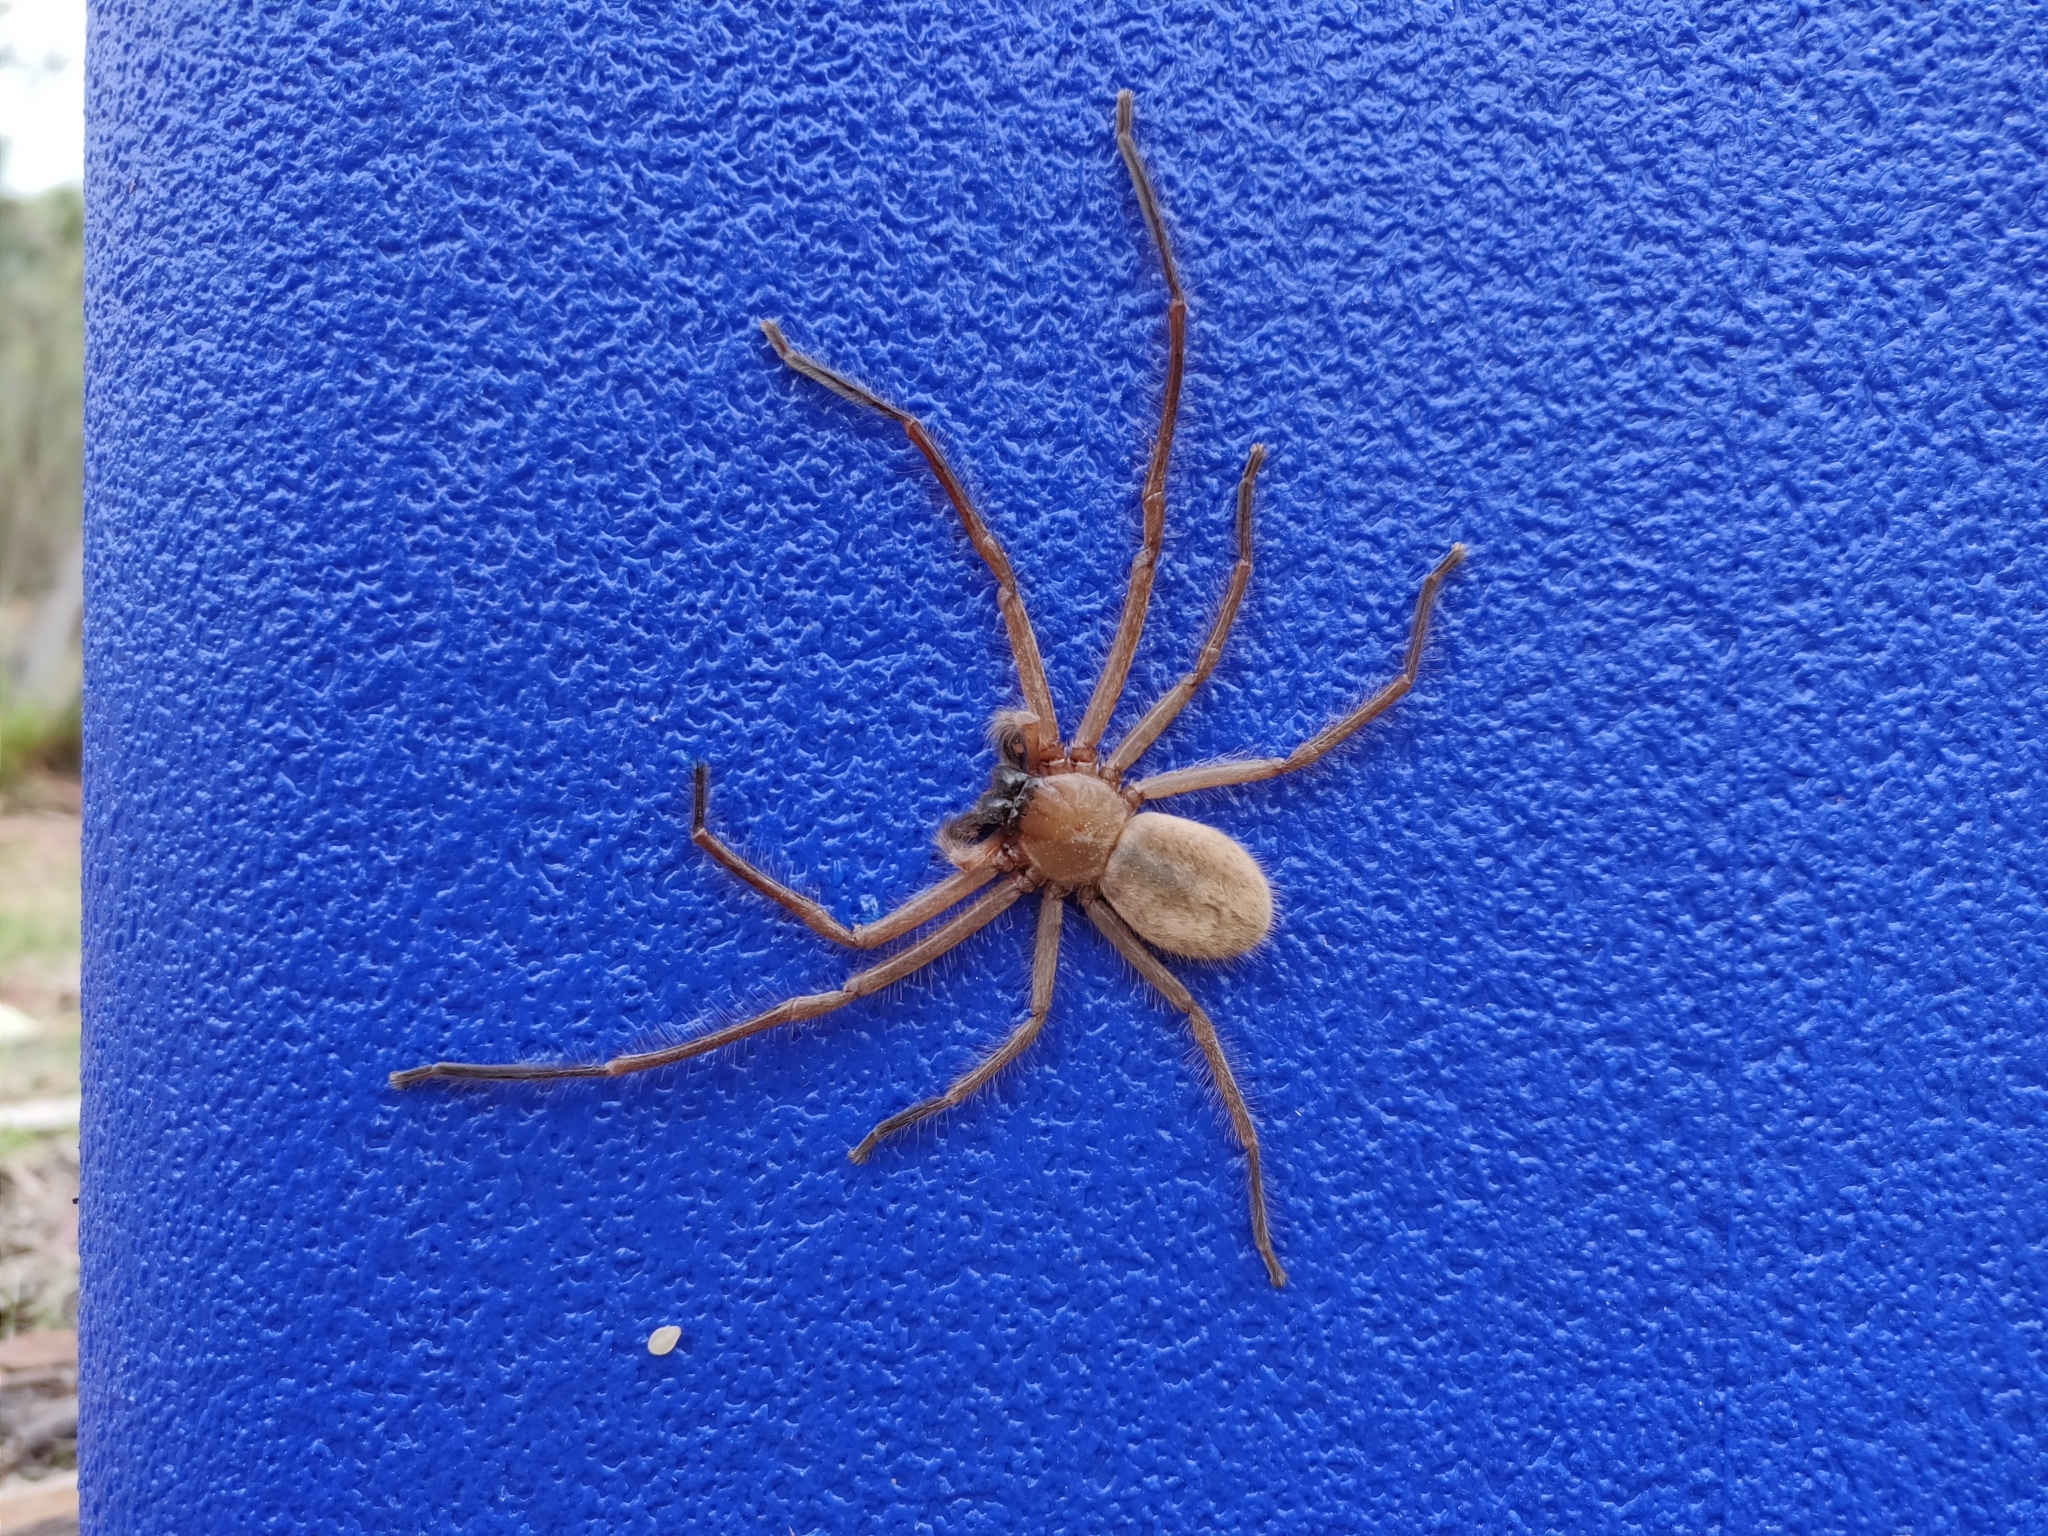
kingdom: Animalia
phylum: Arthropoda
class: Arachnida
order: Araneae
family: Sparassidae
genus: Delena
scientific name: Delena cancerides
